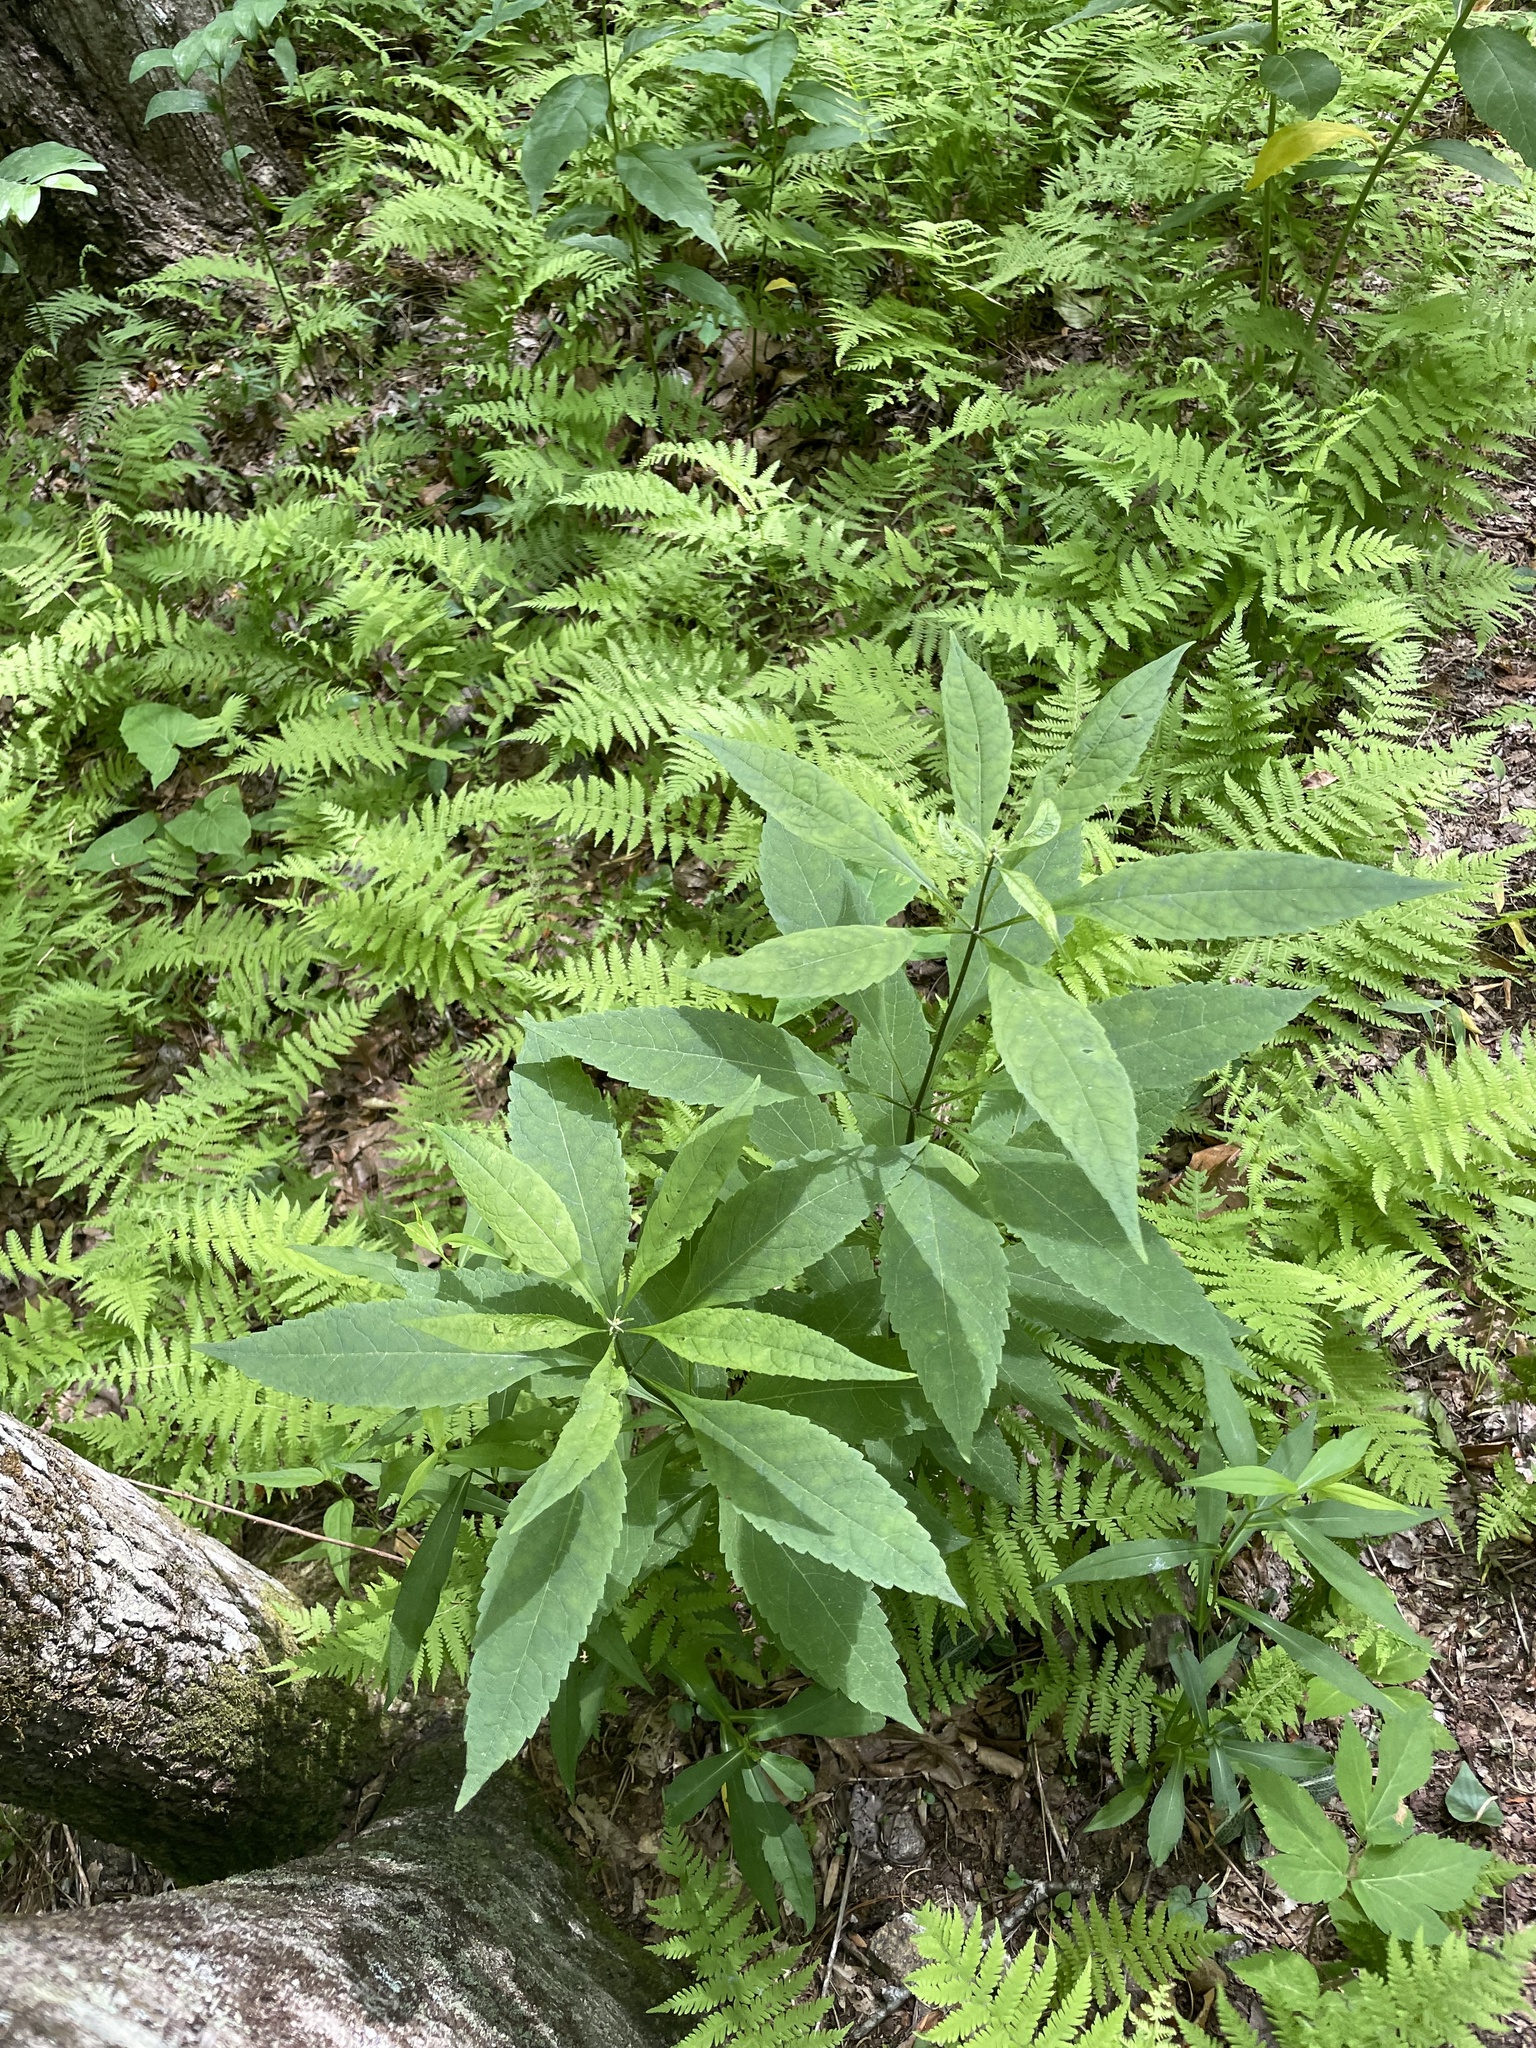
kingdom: Plantae
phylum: Tracheophyta
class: Magnoliopsida
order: Asterales
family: Asteraceae
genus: Eutrochium
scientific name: Eutrochium fistulosum
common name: Trumpetweed
